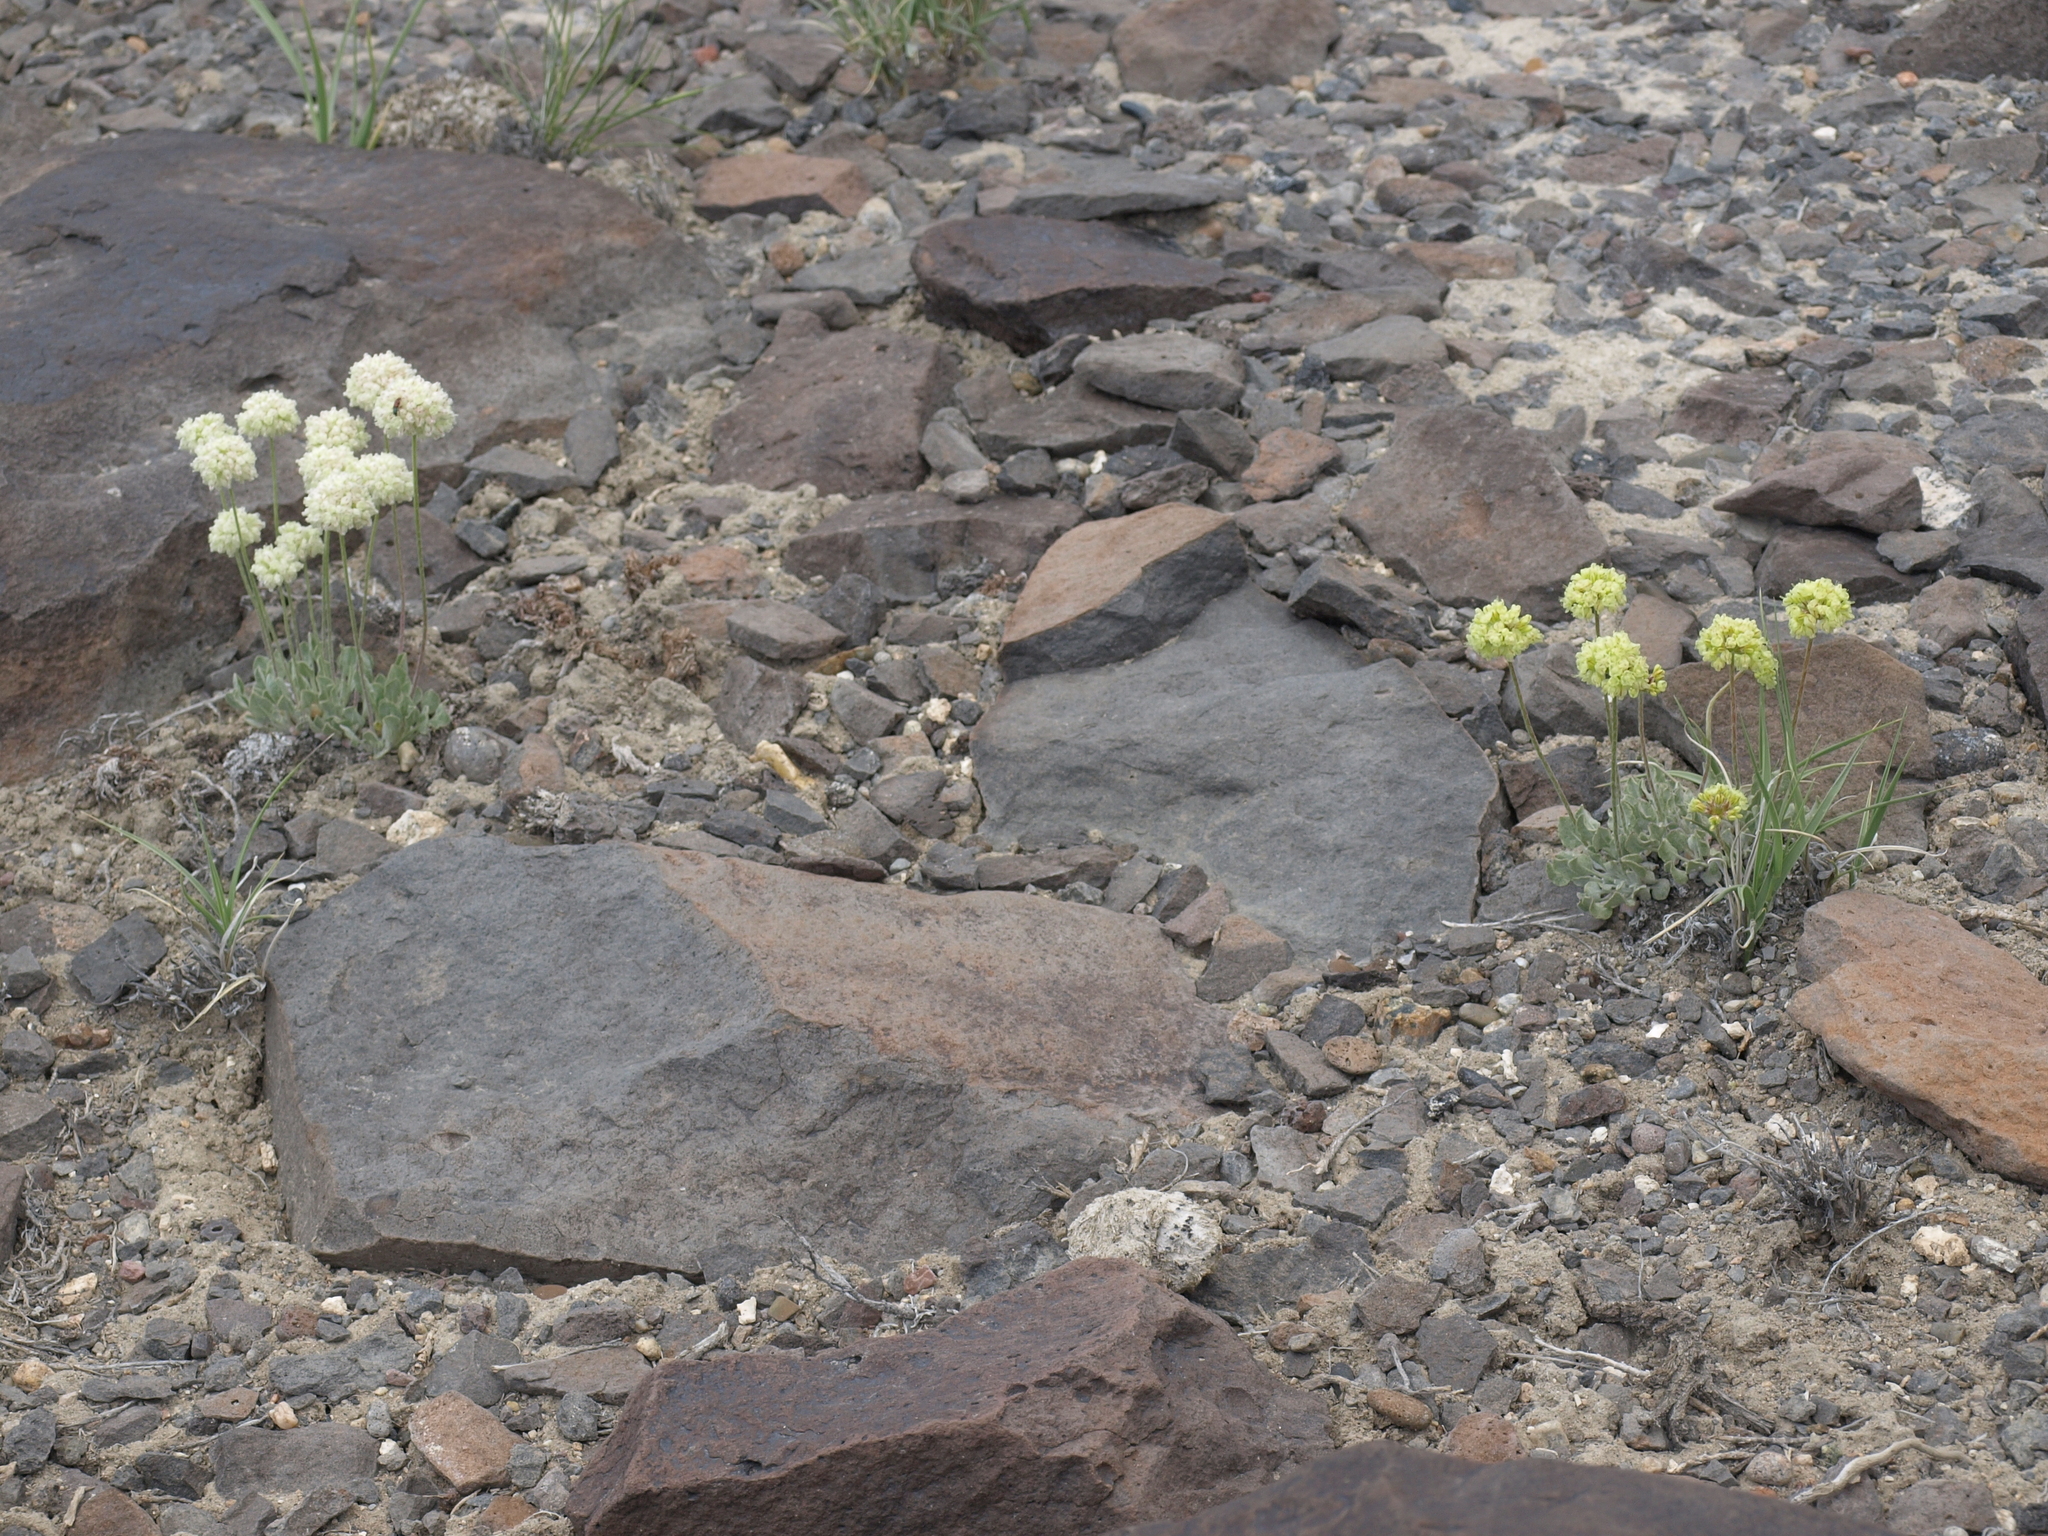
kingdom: Plantae
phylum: Tracheophyta
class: Magnoliopsida
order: Caryophyllales
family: Polygonaceae
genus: Eriogonum
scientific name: Eriogonum ovalifolium
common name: Cushion buckwheat
